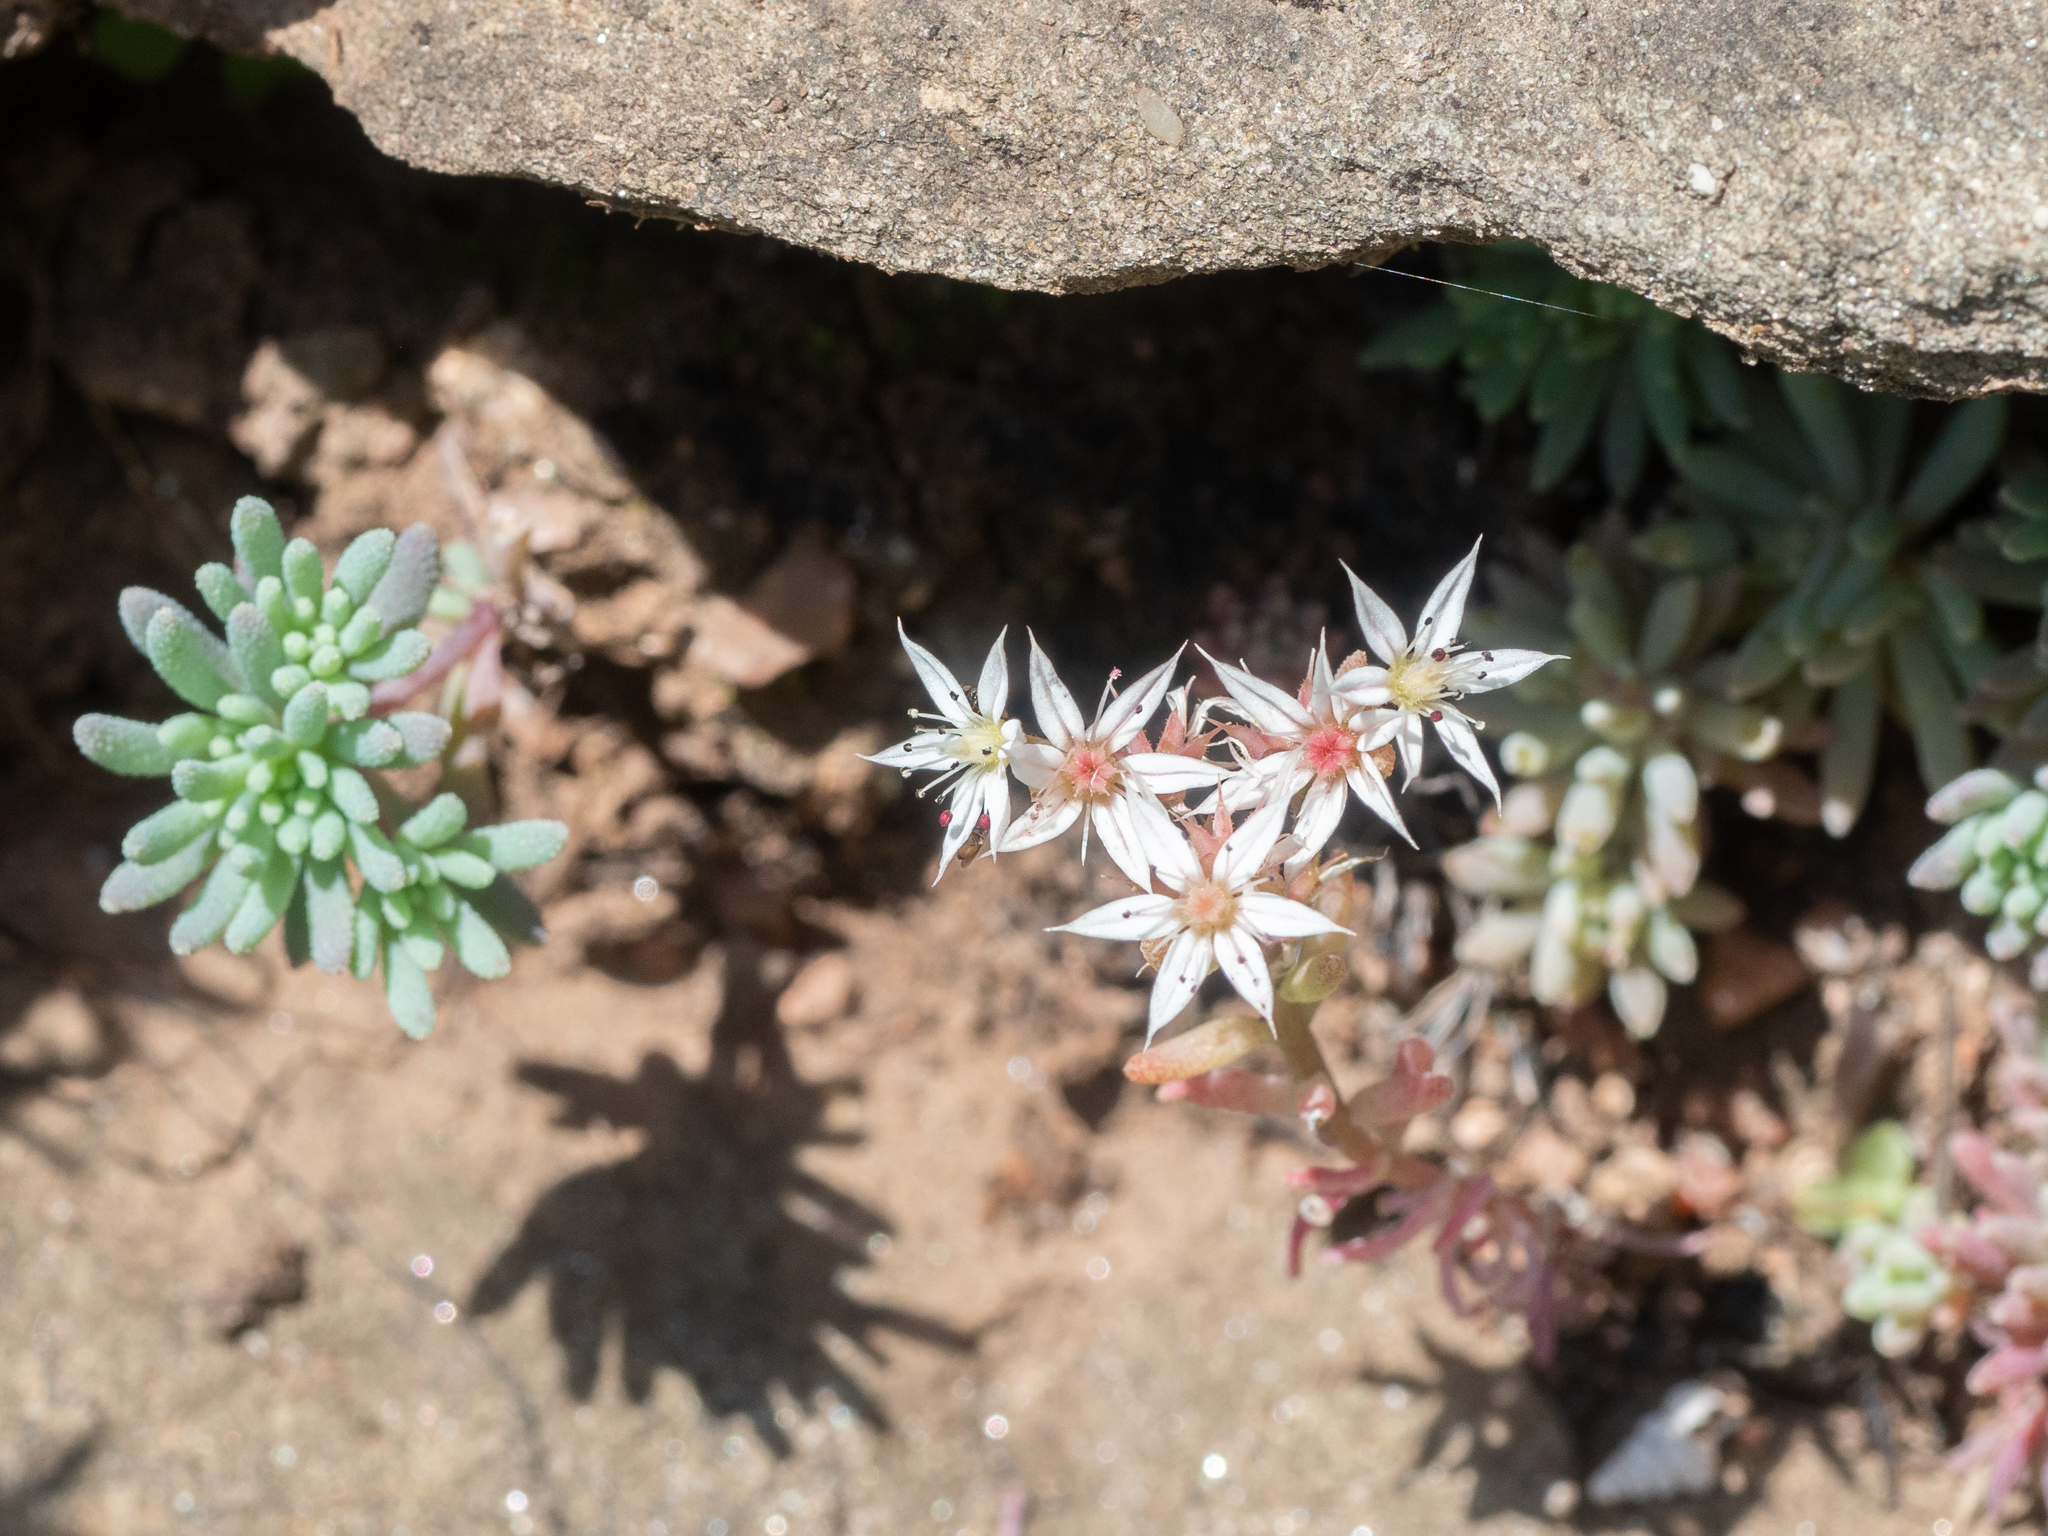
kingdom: Plantae
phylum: Tracheophyta
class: Magnoliopsida
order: Saxifragales
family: Crassulaceae
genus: Sedum
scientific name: Sedum hispanicum
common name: Spanish stonecrop
